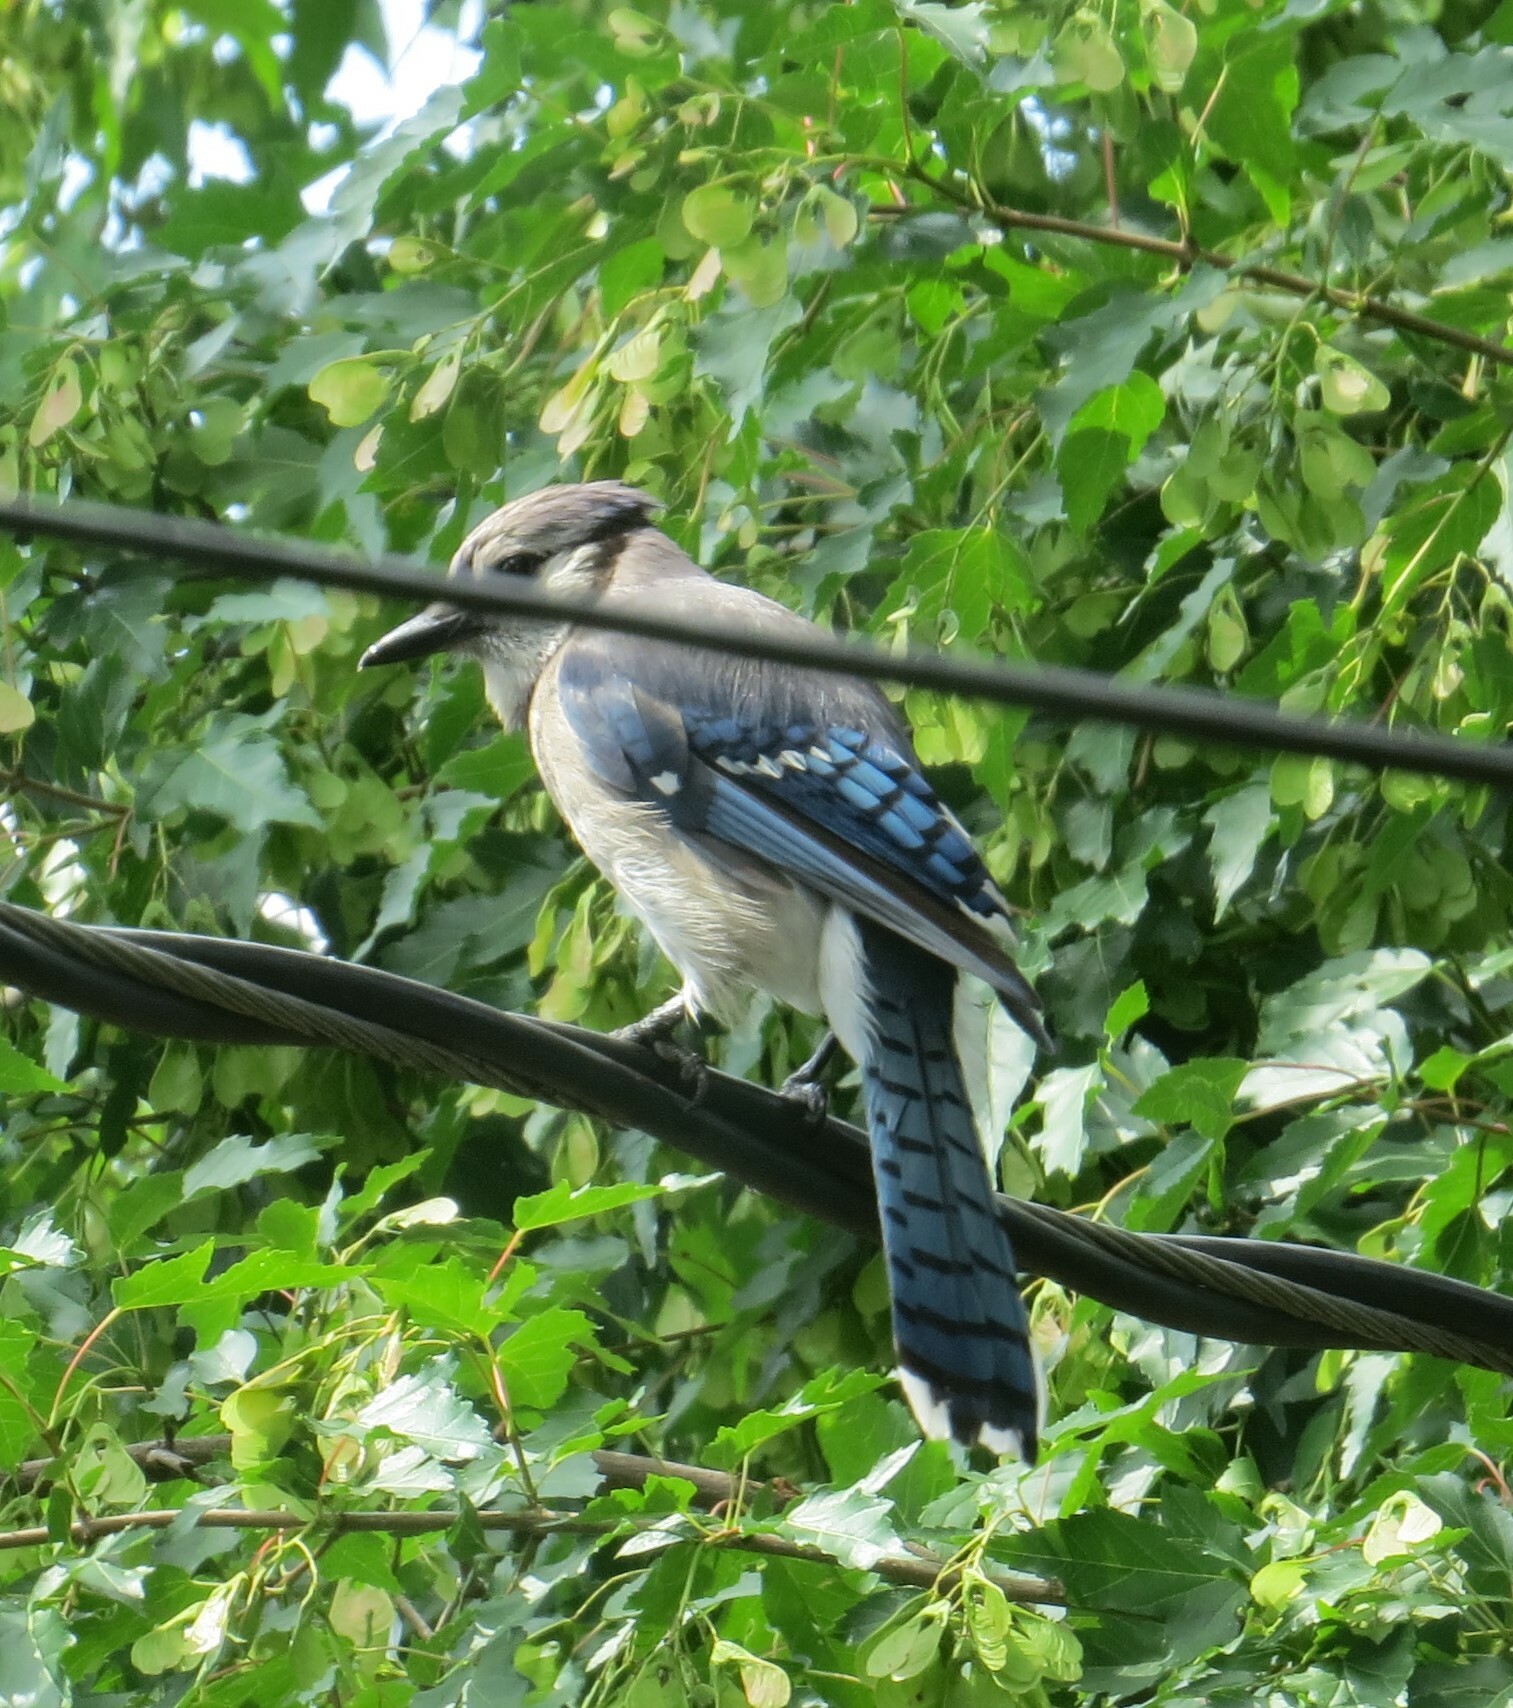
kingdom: Animalia
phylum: Chordata
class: Aves
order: Passeriformes
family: Corvidae
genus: Cyanocitta
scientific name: Cyanocitta cristata
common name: Blue jay
